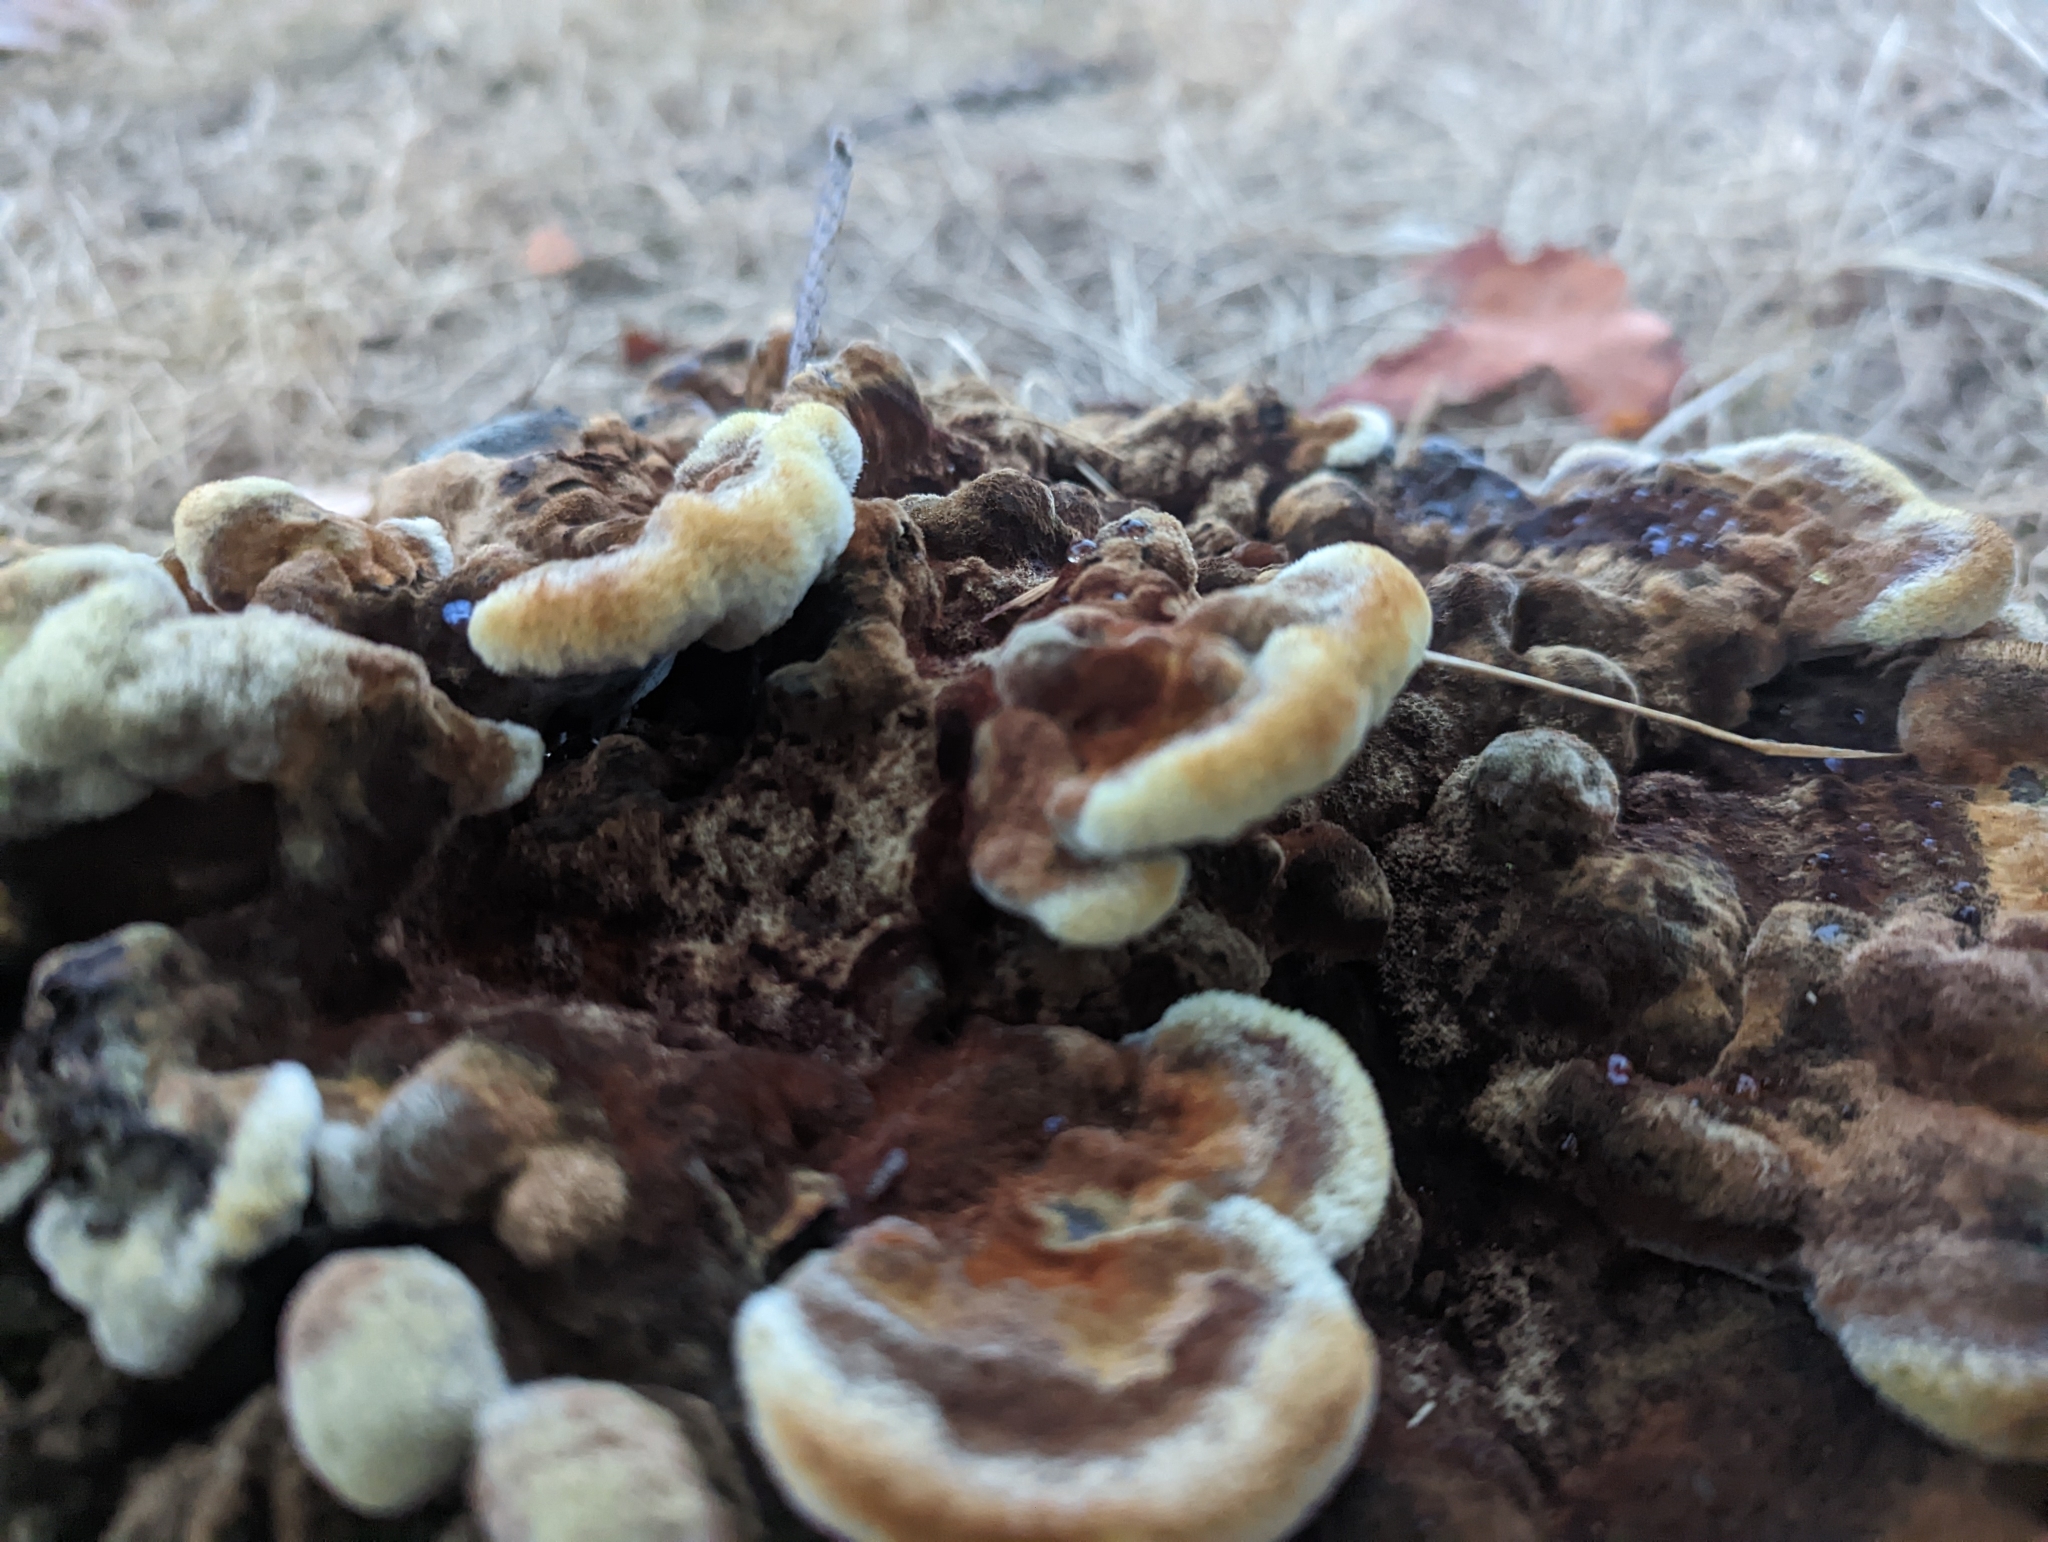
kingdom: Fungi
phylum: Basidiomycota
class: Agaricomycetes
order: Polyporales
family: Laetiporaceae
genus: Phaeolus
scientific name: Phaeolus schweinitzii
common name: Dyer's mazegill
